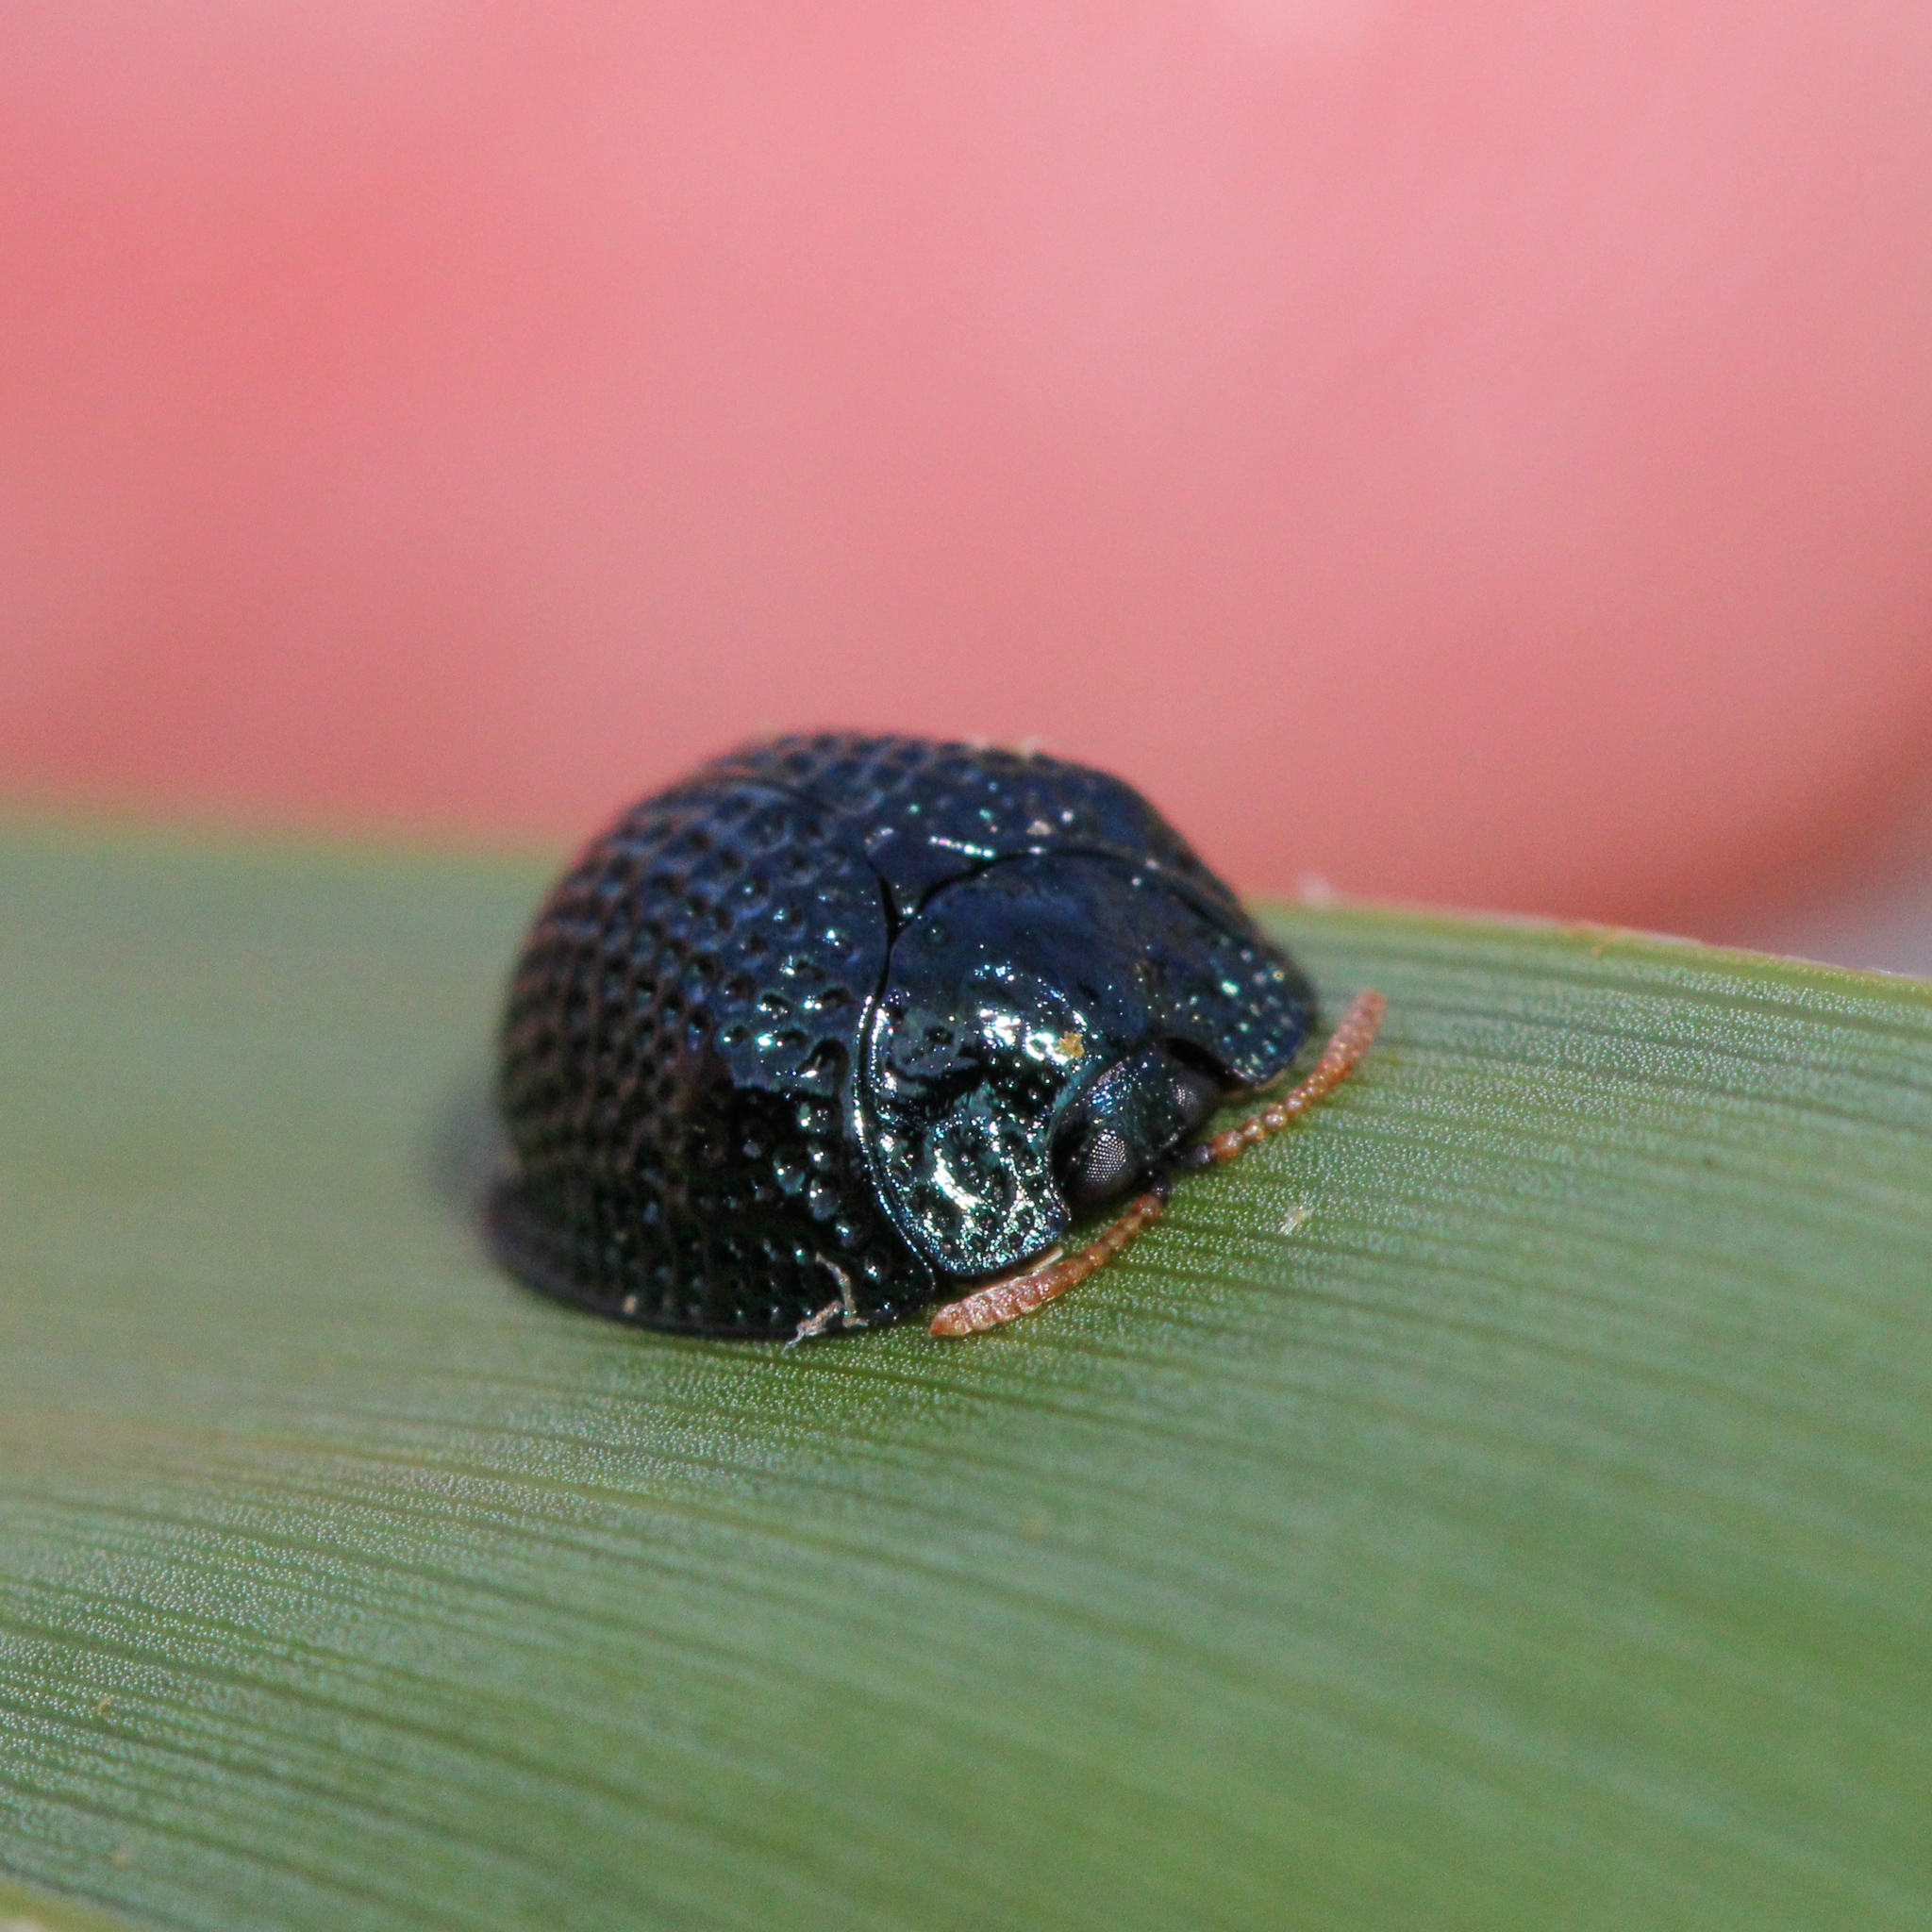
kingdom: Animalia
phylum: Arthropoda
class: Insecta
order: Coleoptera
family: Chrysomelidae
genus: Hemisphaerota
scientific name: Hemisphaerota cyanea
